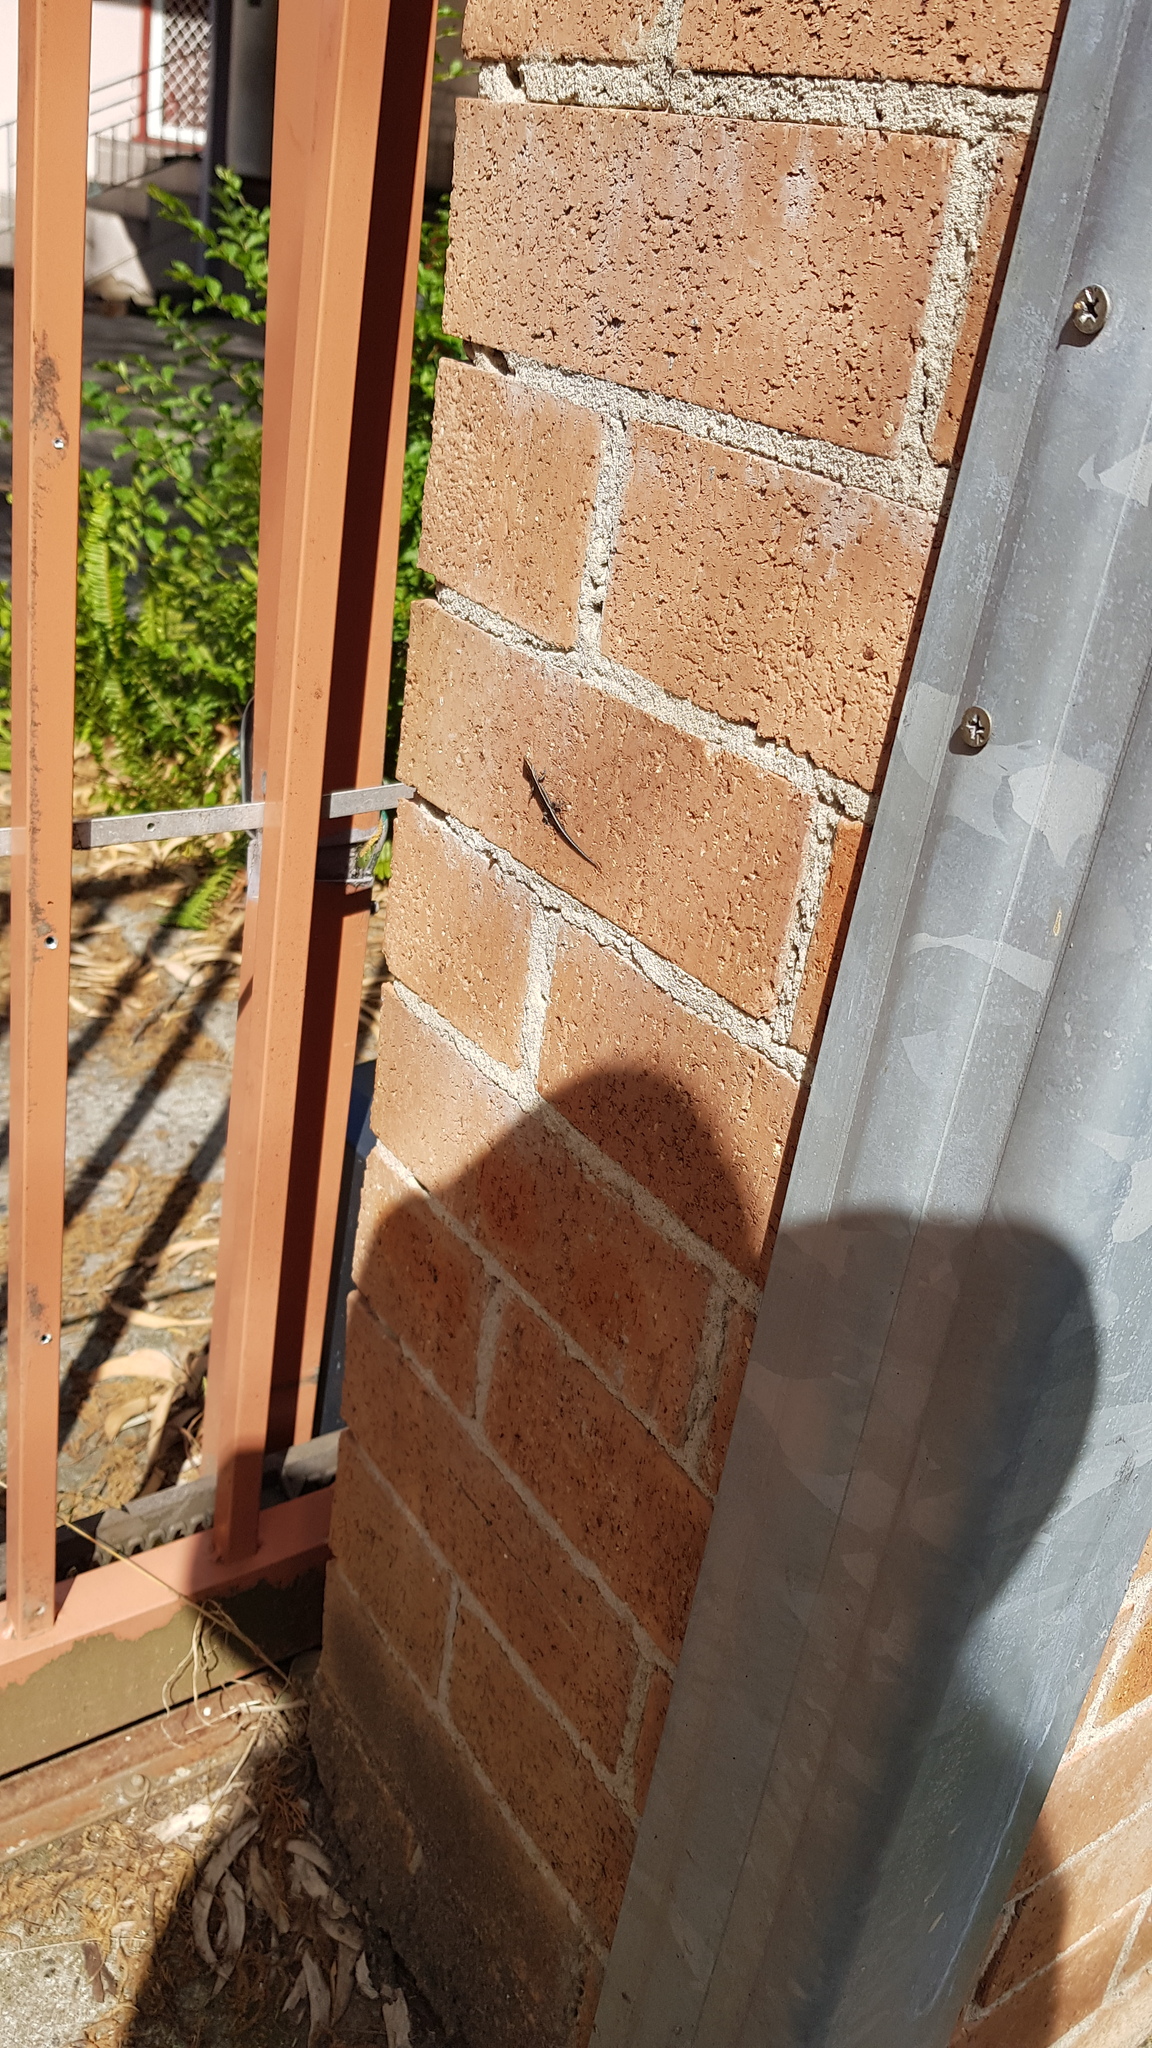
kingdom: Animalia
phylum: Chordata
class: Squamata
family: Scincidae
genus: Cryptoblepharus
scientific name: Cryptoblepharus pulcher
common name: Elegant snake-eyed skink
